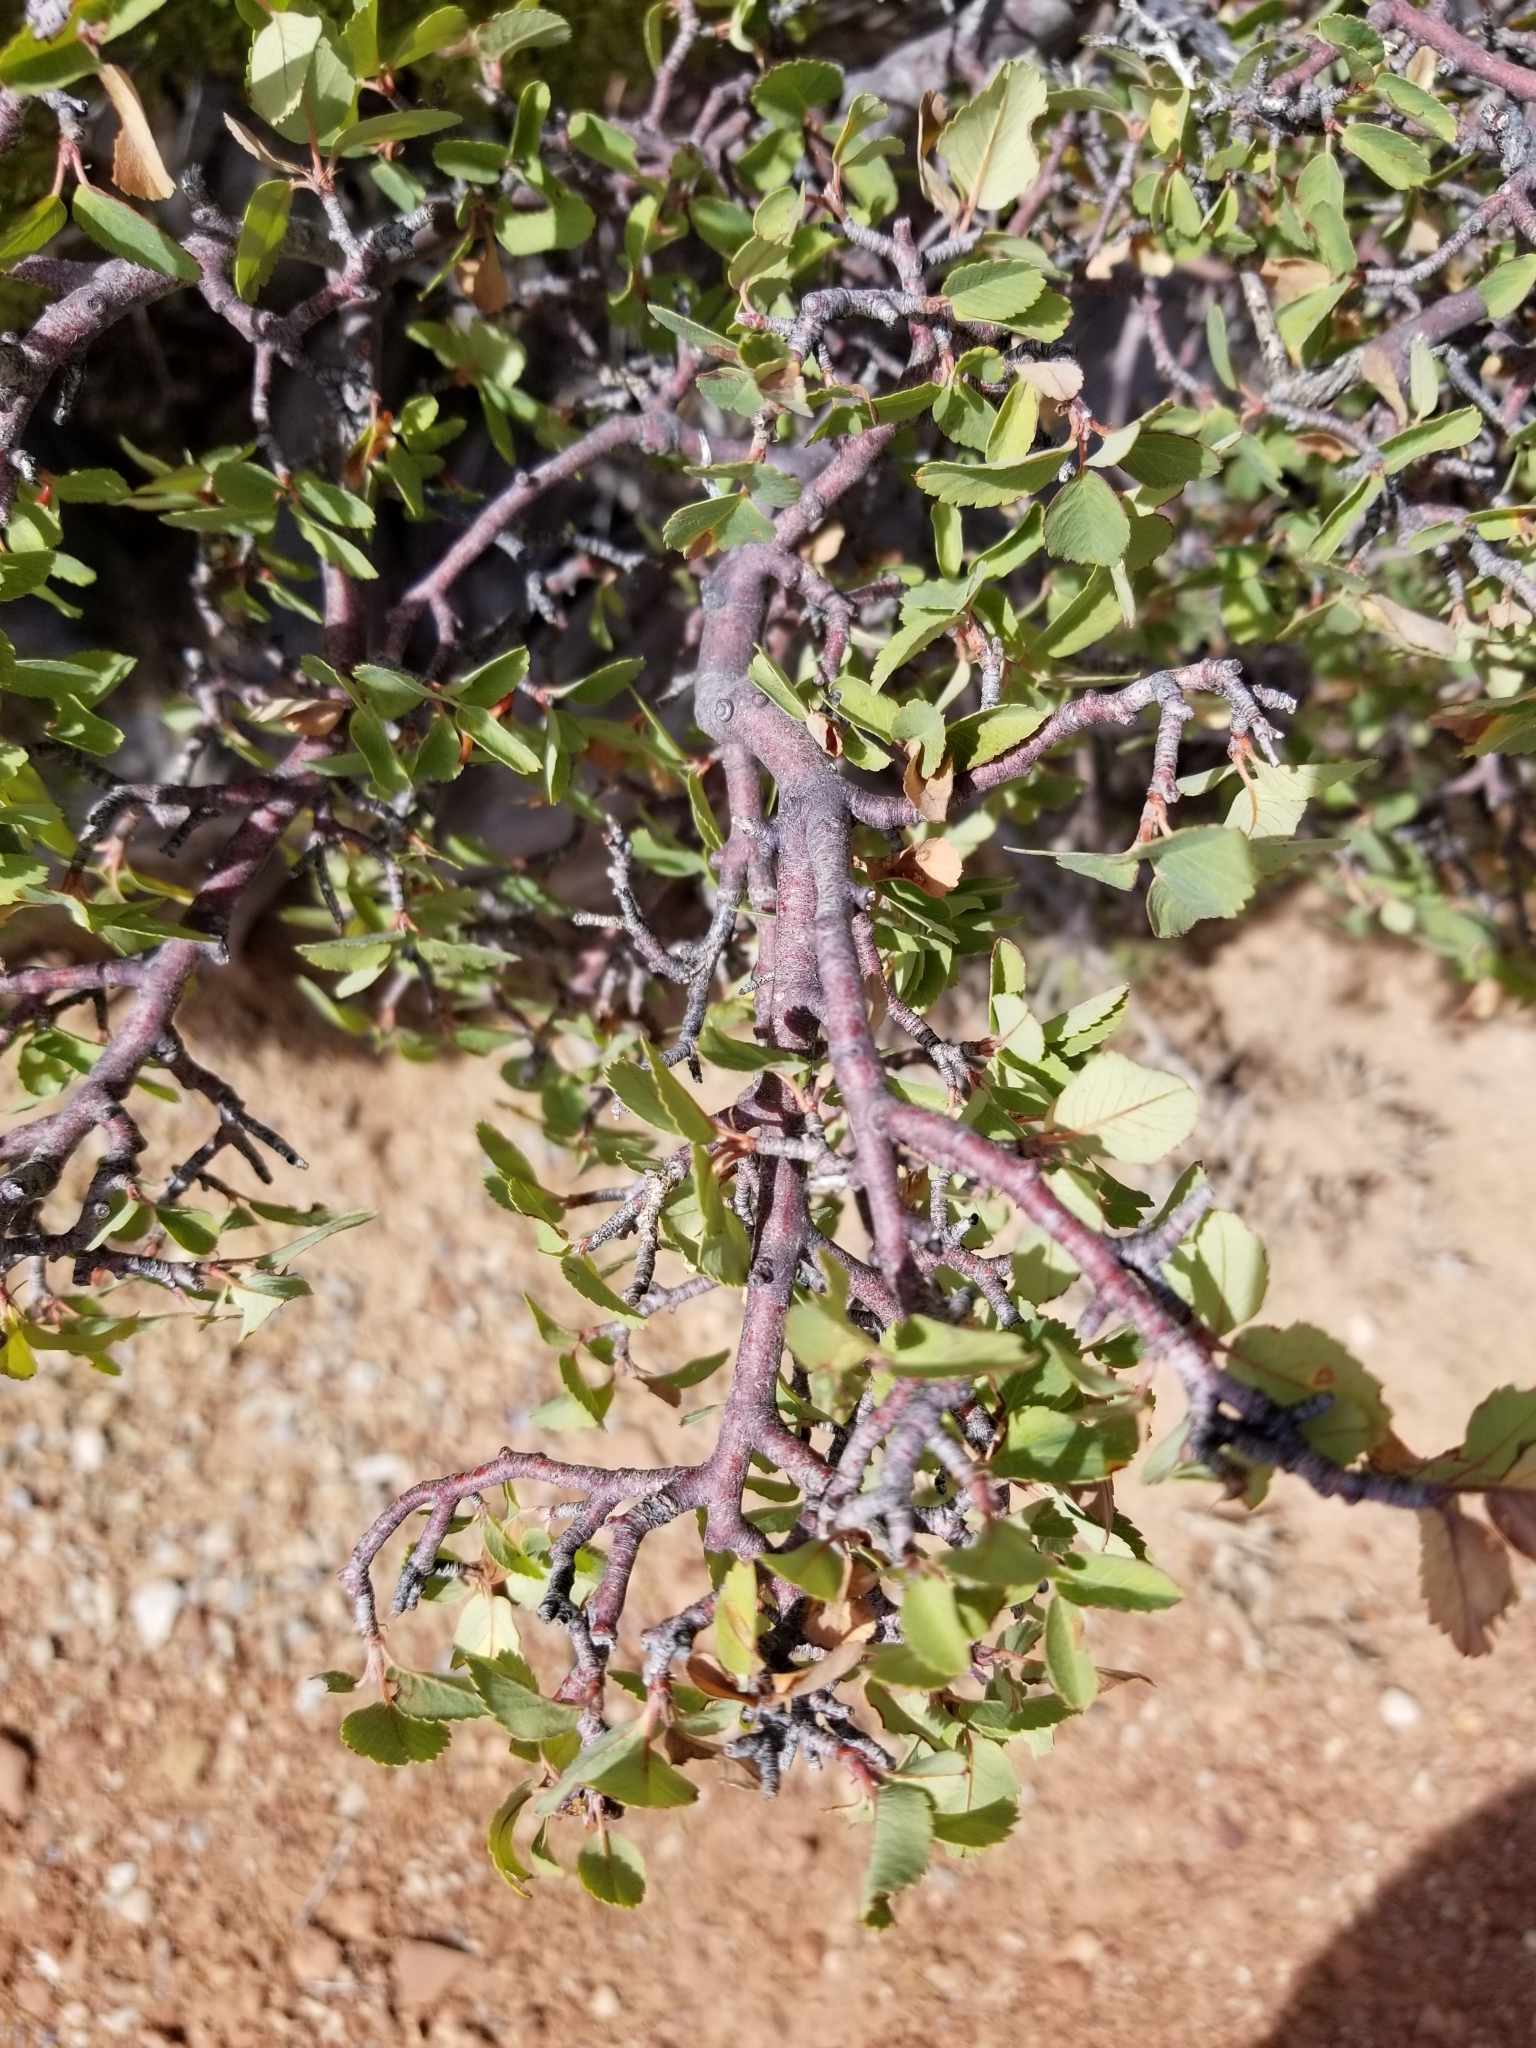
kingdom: Plantae
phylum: Tracheophyta
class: Magnoliopsida
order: Rosales
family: Rosaceae
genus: Amelanchier
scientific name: Amelanchier utahensis
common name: Utah serviceberry
